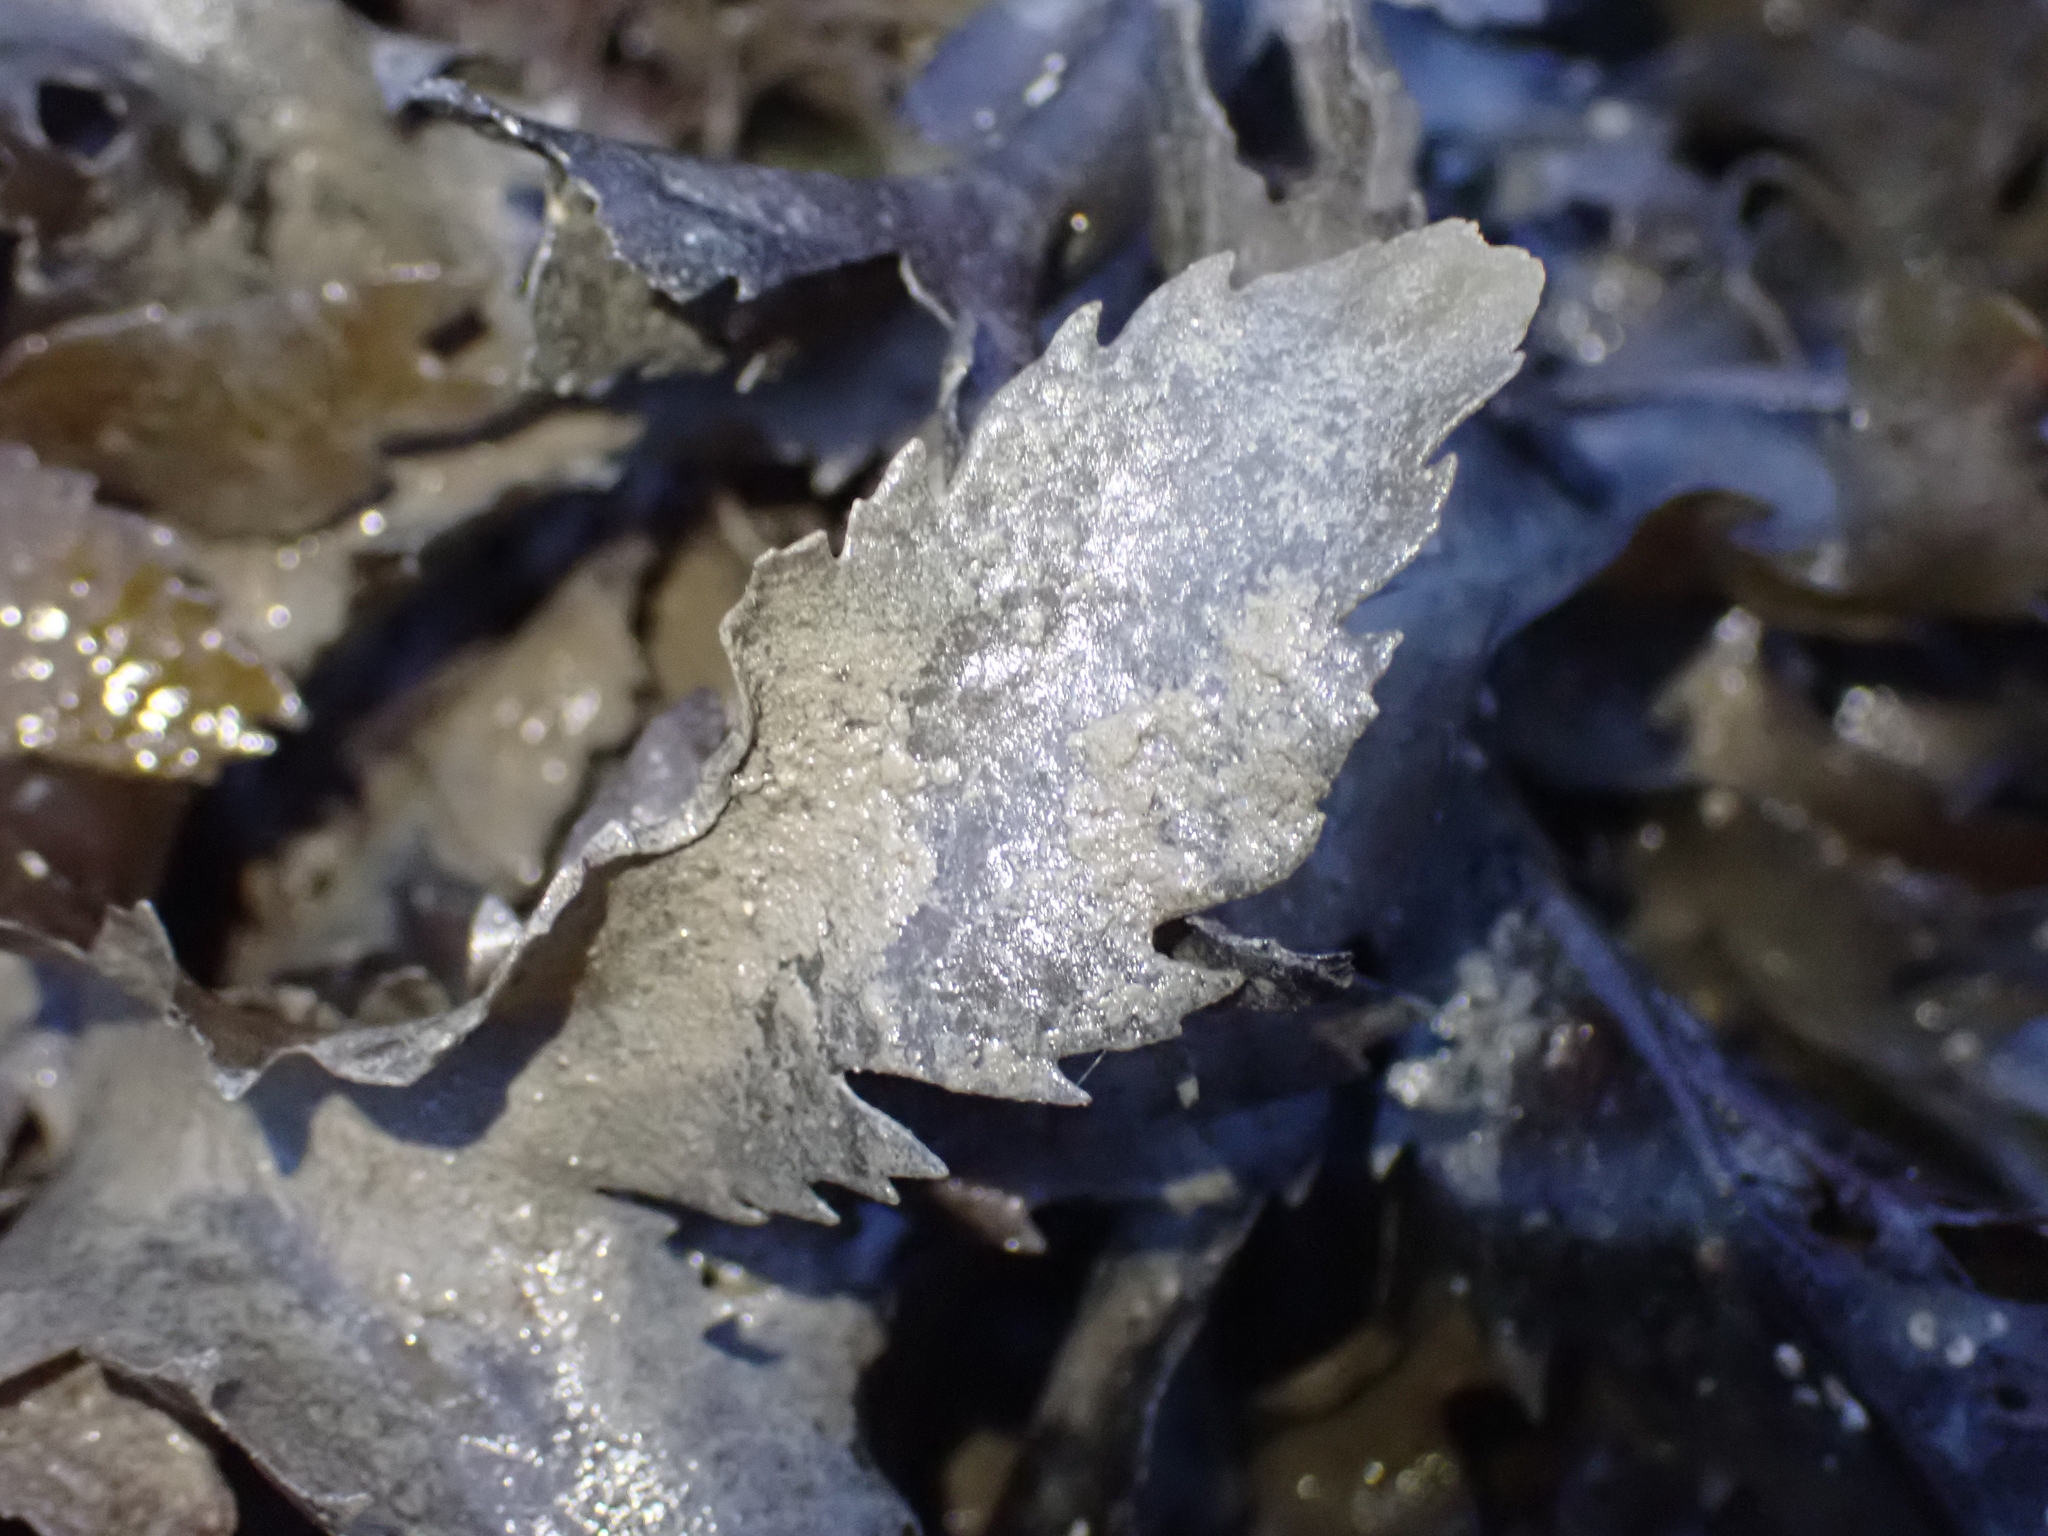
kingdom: Chromista
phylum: Ochrophyta
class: Phaeophyceae
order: Fucales
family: Fucaceae
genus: Fucus
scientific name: Fucus serratus
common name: Toothed wrack
